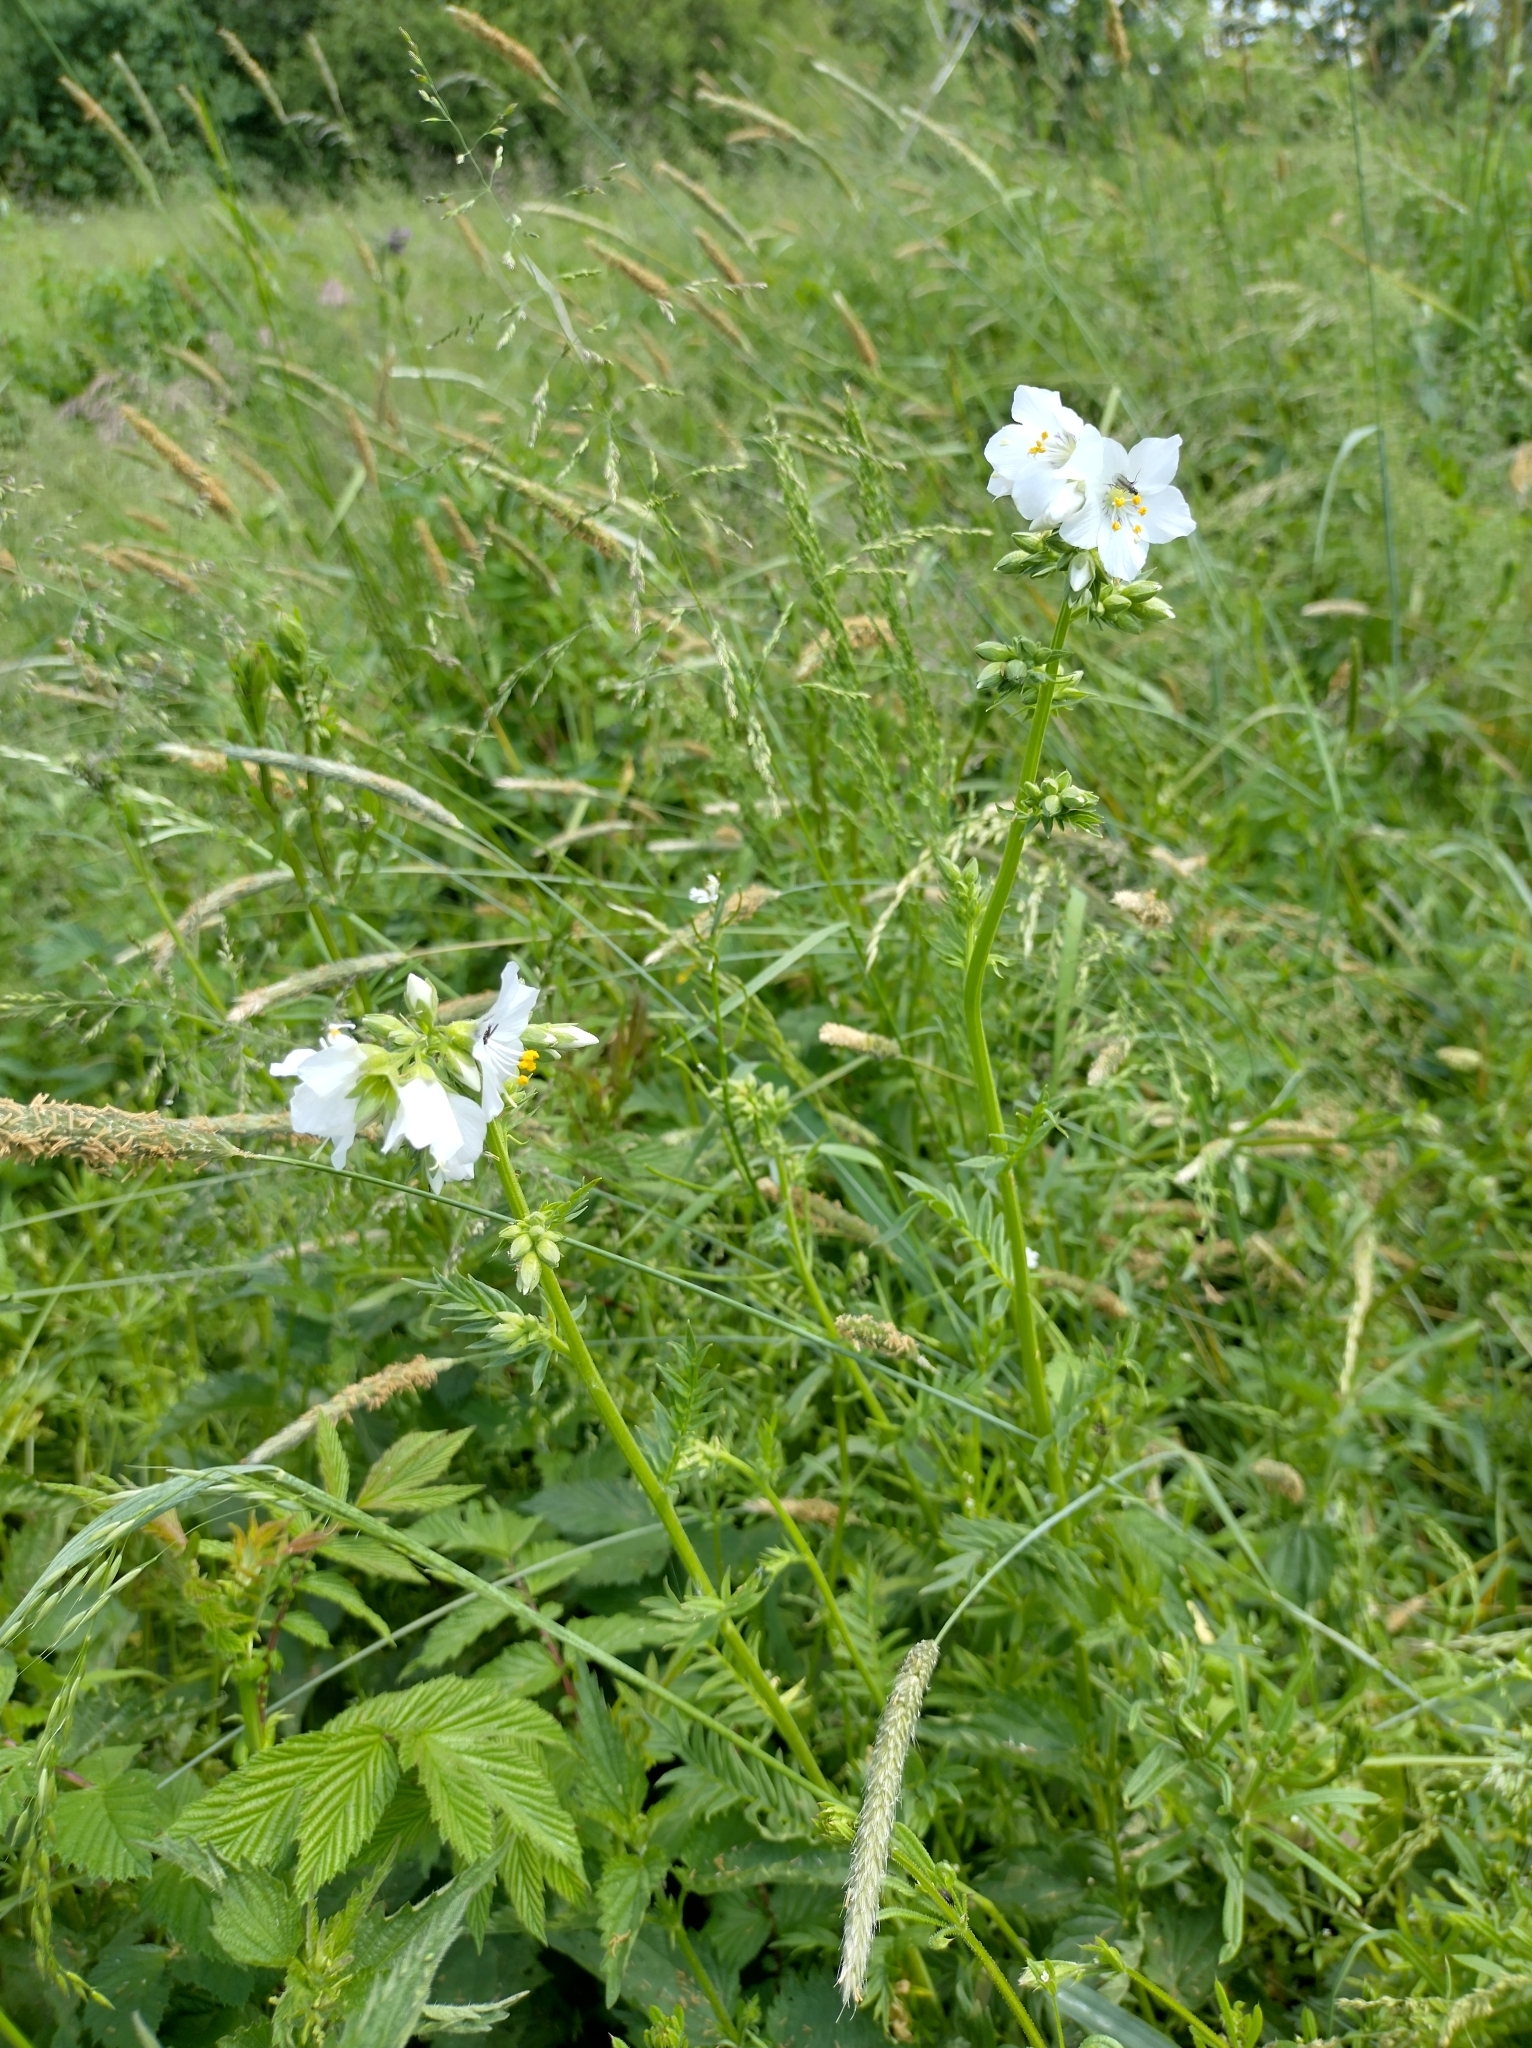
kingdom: Plantae
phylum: Tracheophyta
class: Magnoliopsida
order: Ericales
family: Polemoniaceae
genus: Polemonium
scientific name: Polemonium caeruleum
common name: Jacob's-ladder
